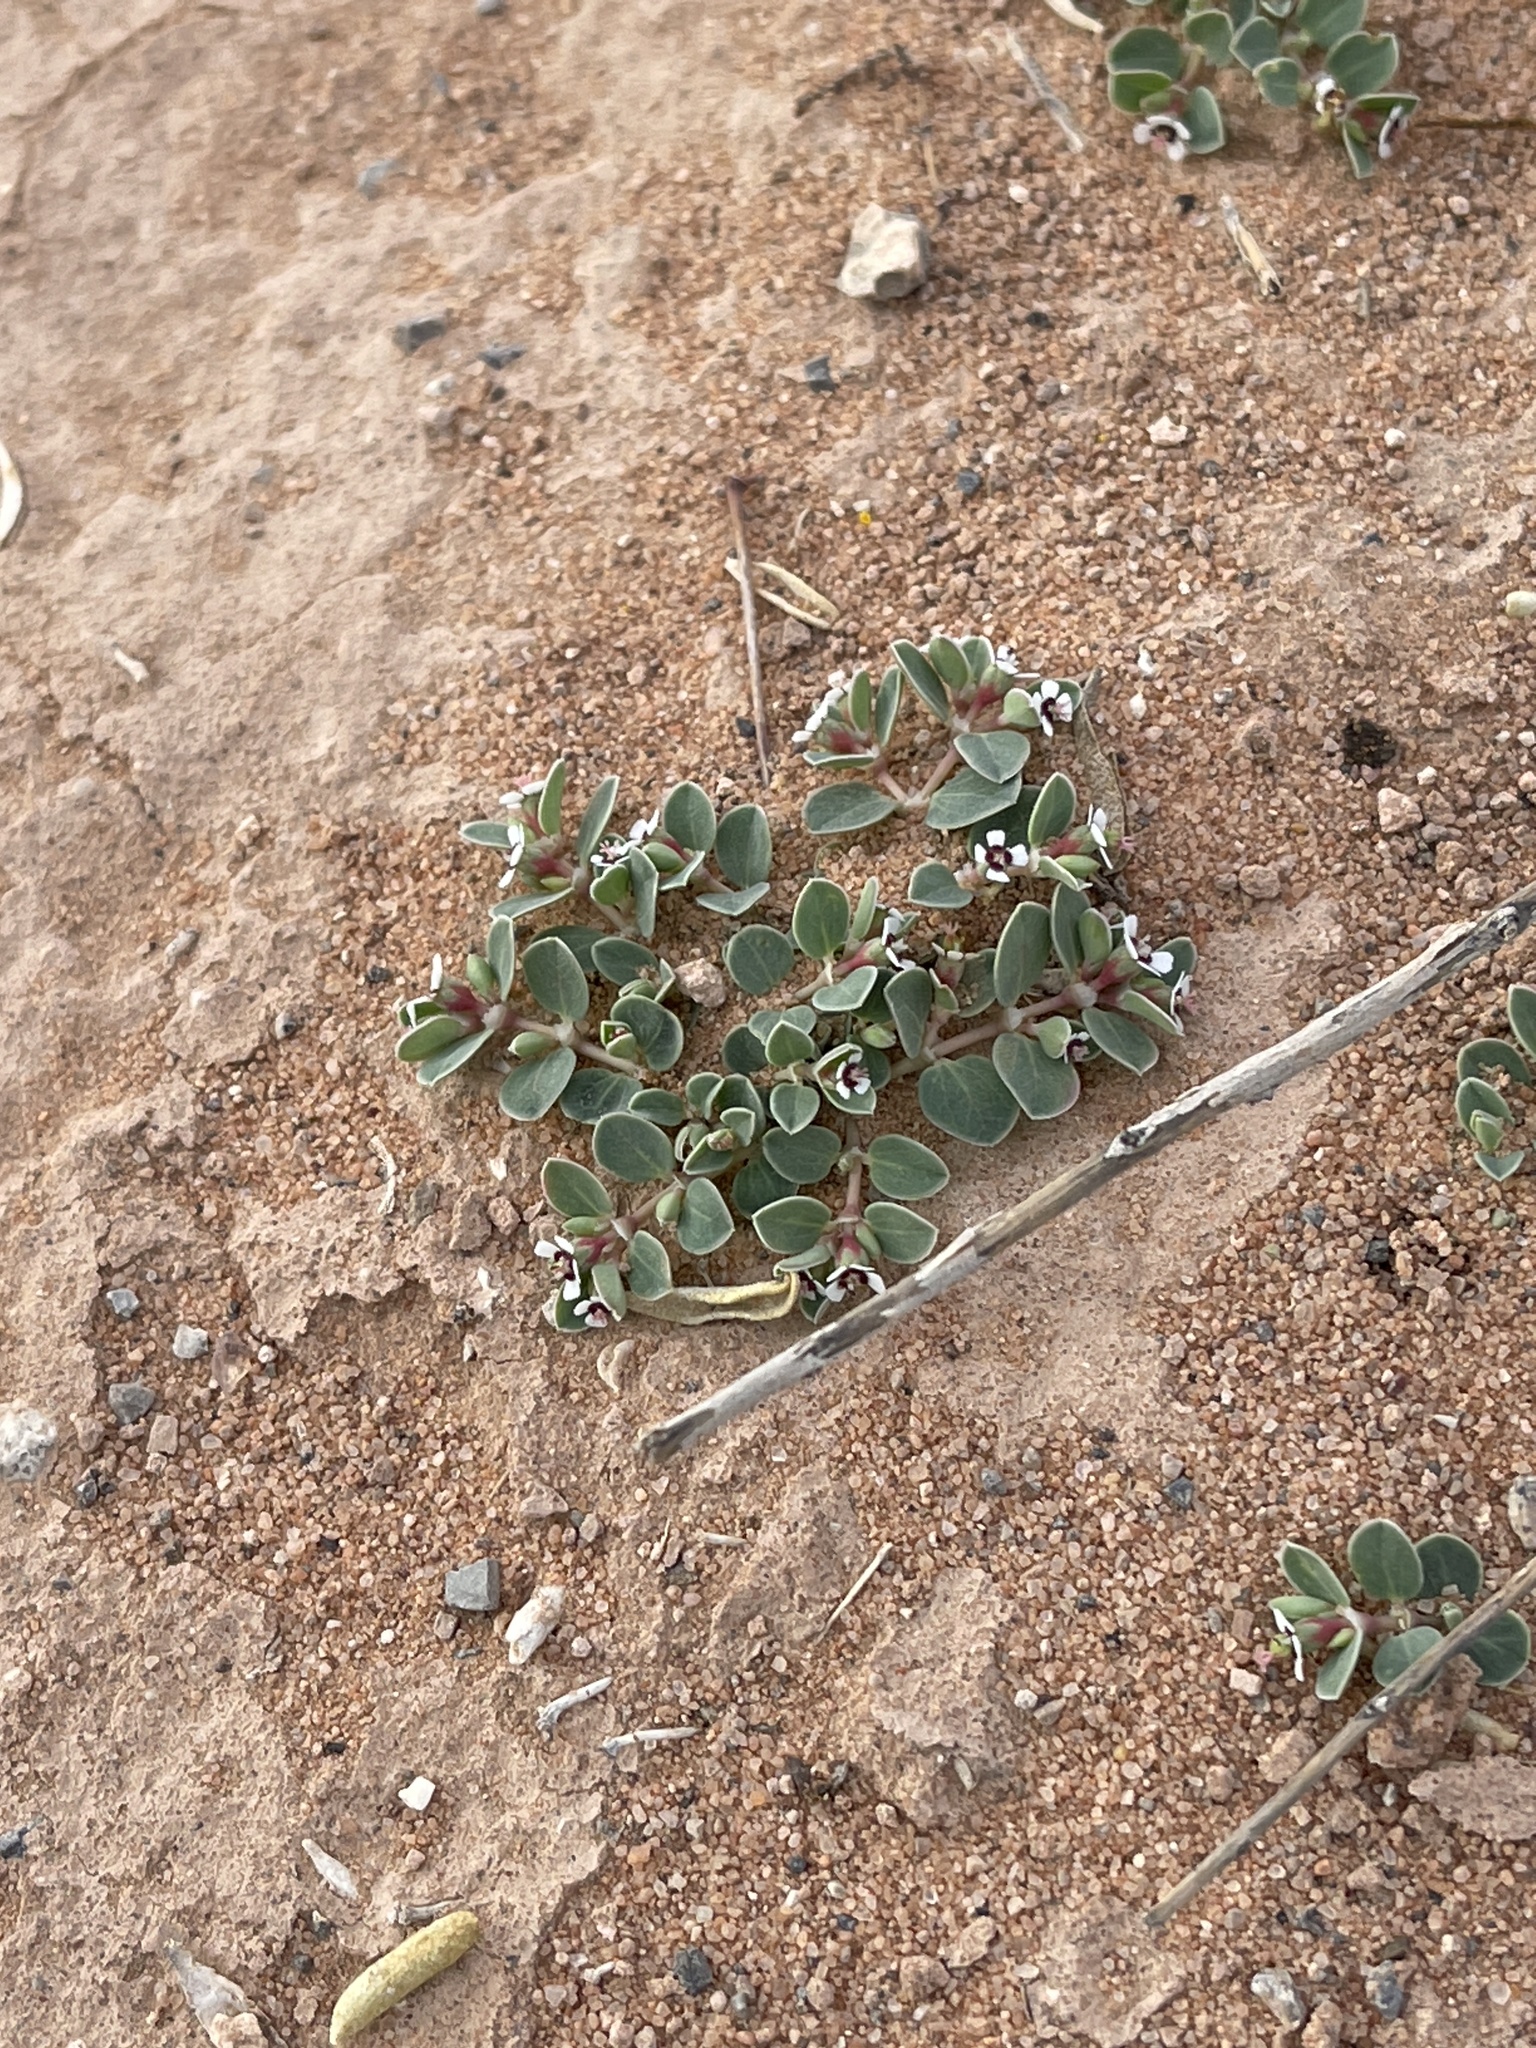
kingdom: Plantae
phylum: Tracheophyta
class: Magnoliopsida
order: Malpighiales
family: Euphorbiaceae
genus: Euphorbia
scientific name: Euphorbia albomarginata
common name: Whitemargin sandmat
